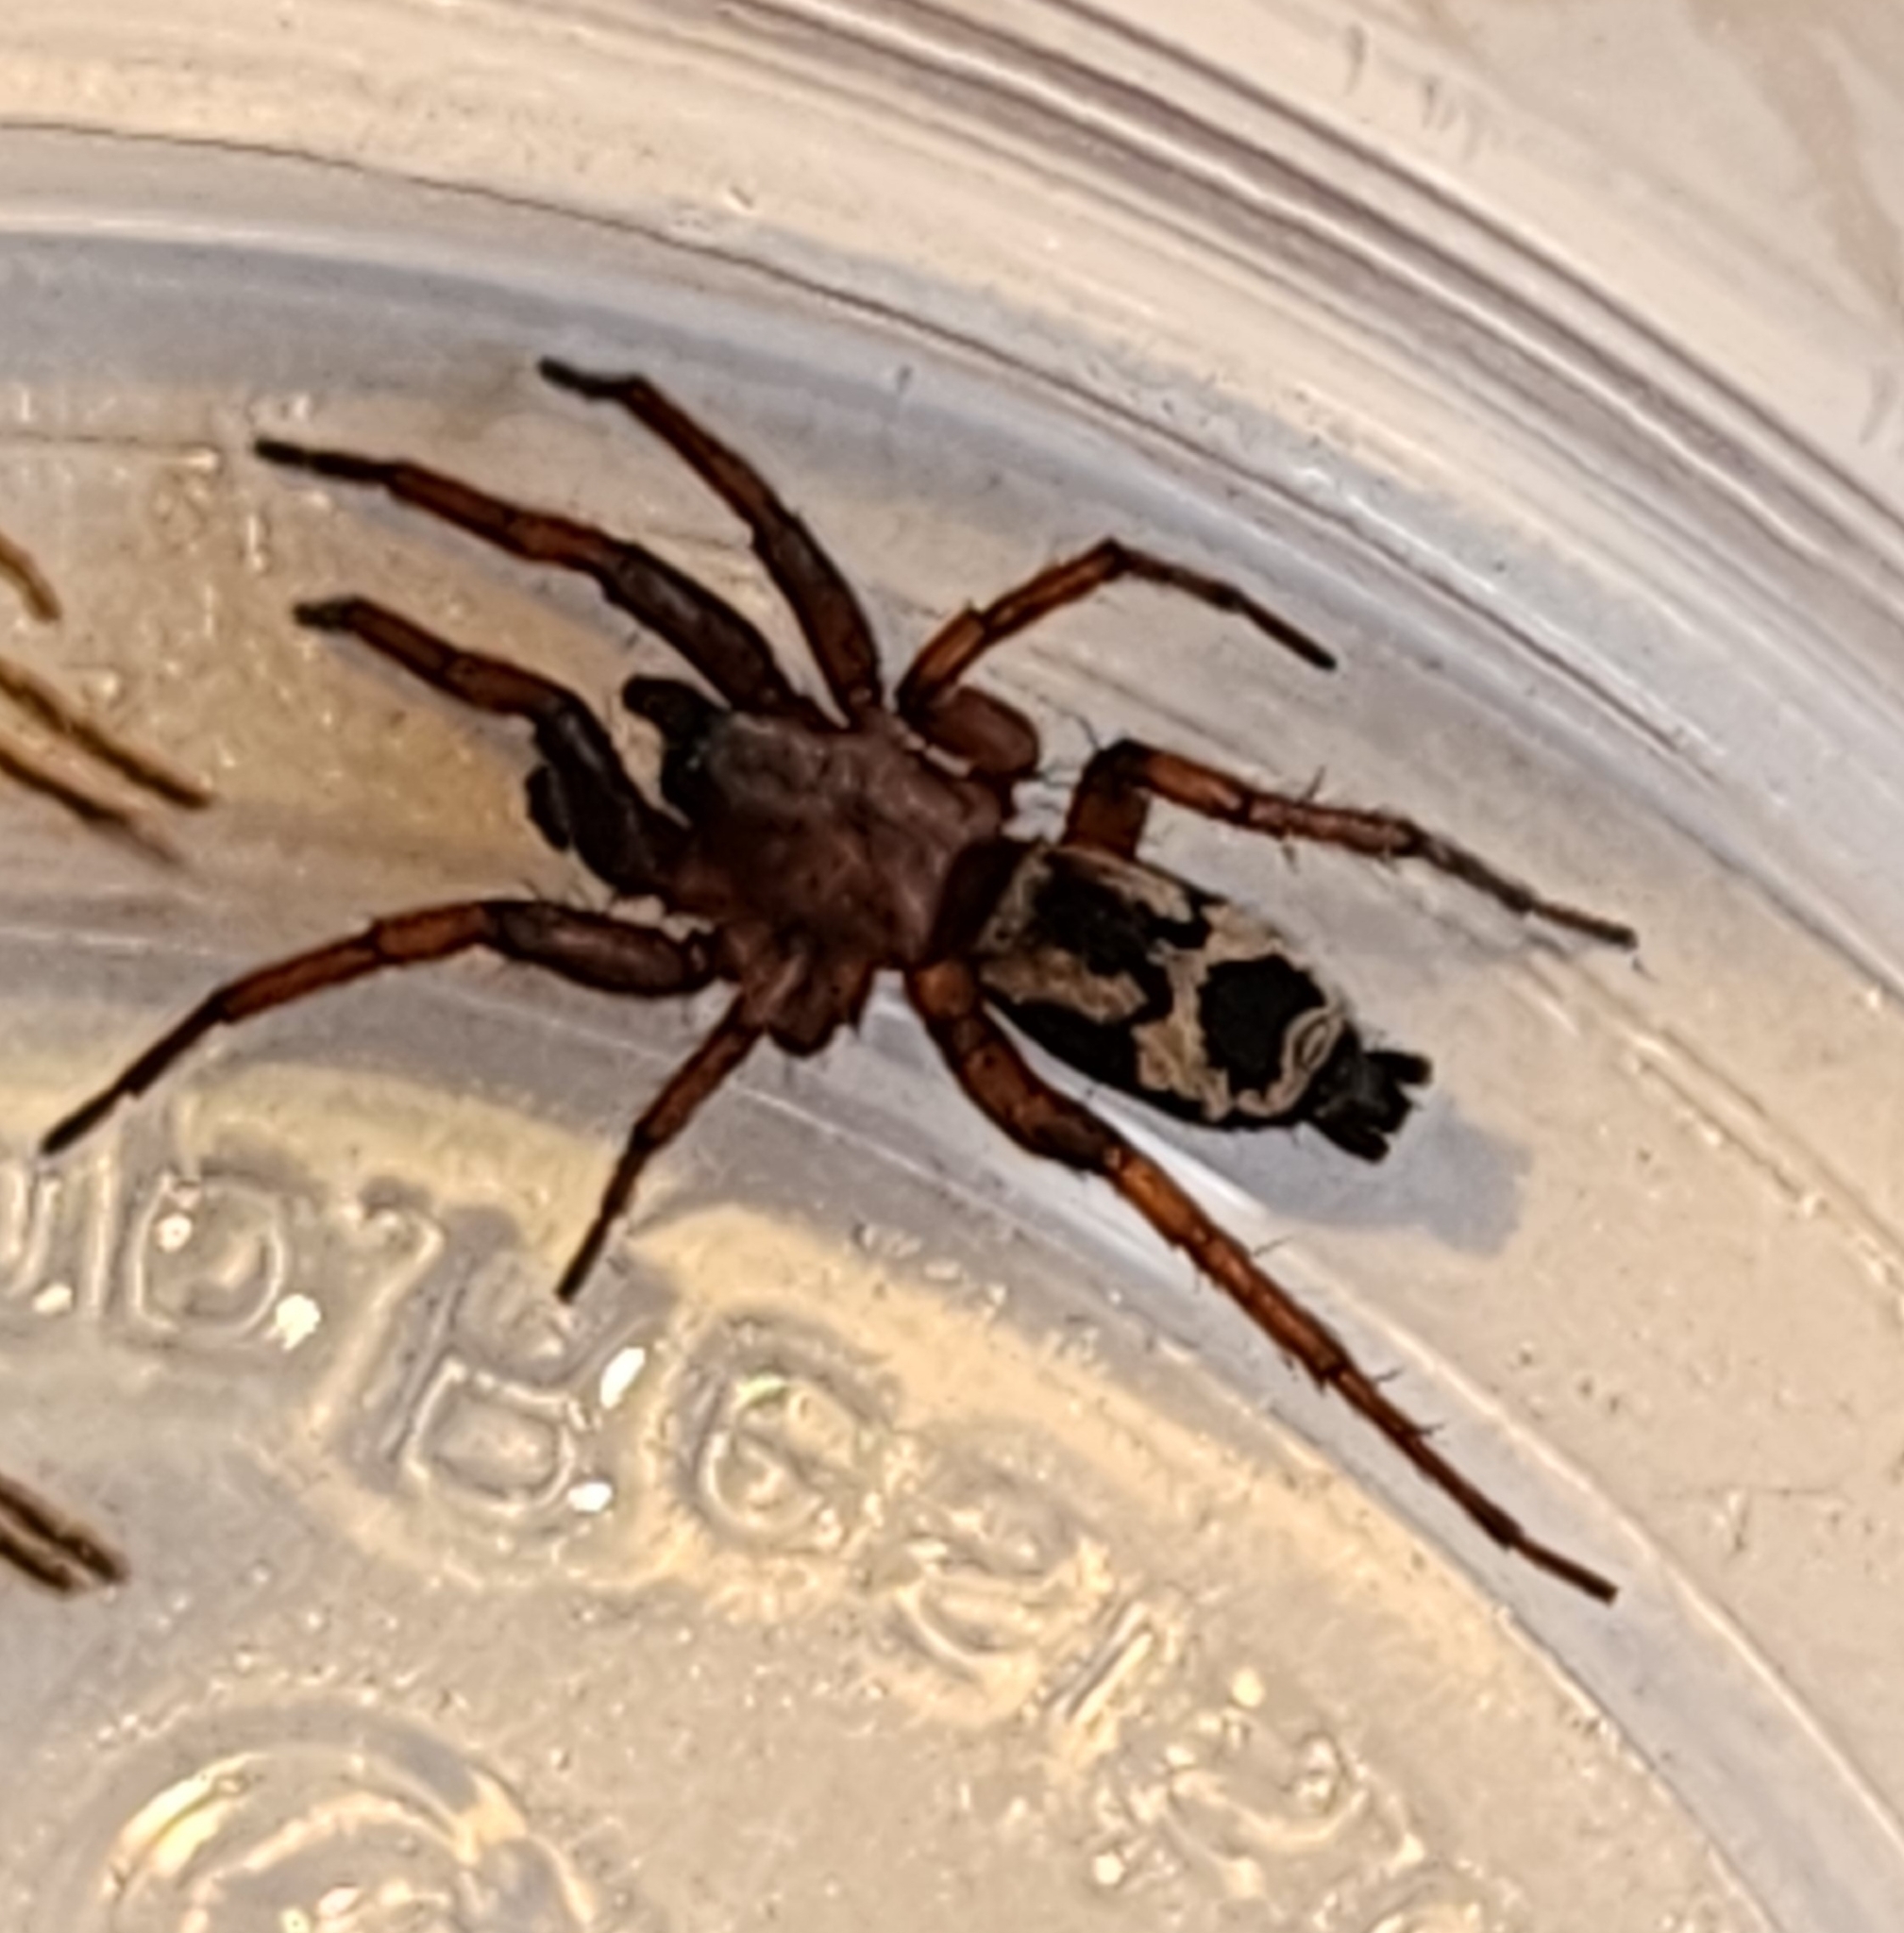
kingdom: Animalia
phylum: Arthropoda
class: Arachnida
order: Araneae
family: Gnaphosidae
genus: Sergiolus
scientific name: Sergiolus montanus
